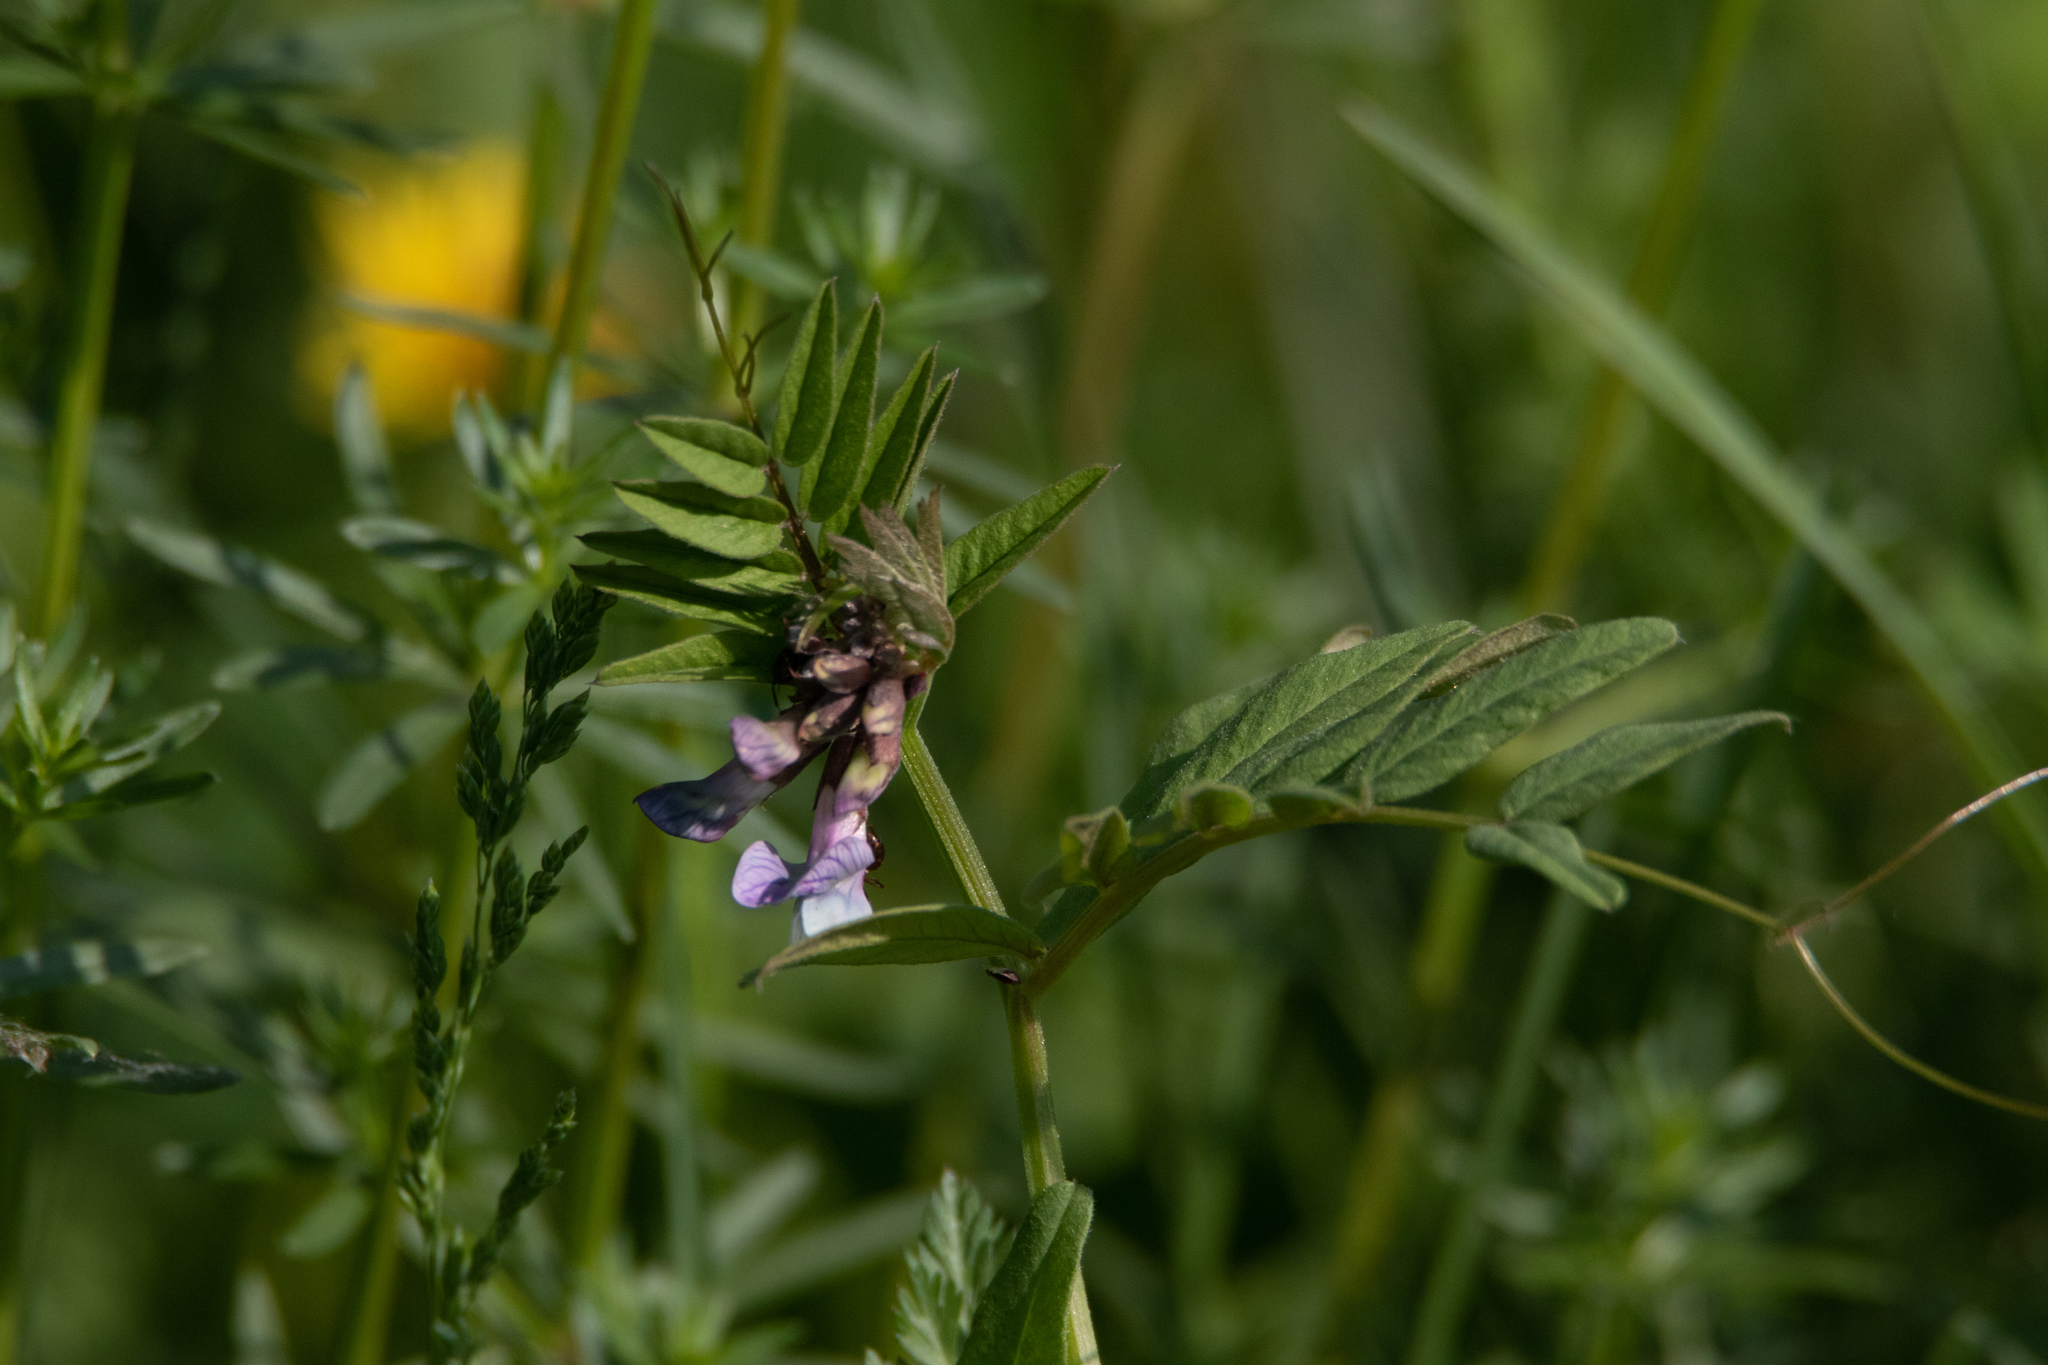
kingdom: Plantae
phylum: Tracheophyta
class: Magnoliopsida
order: Fabales
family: Fabaceae
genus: Vicia
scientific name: Vicia sepium
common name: Bush vetch
